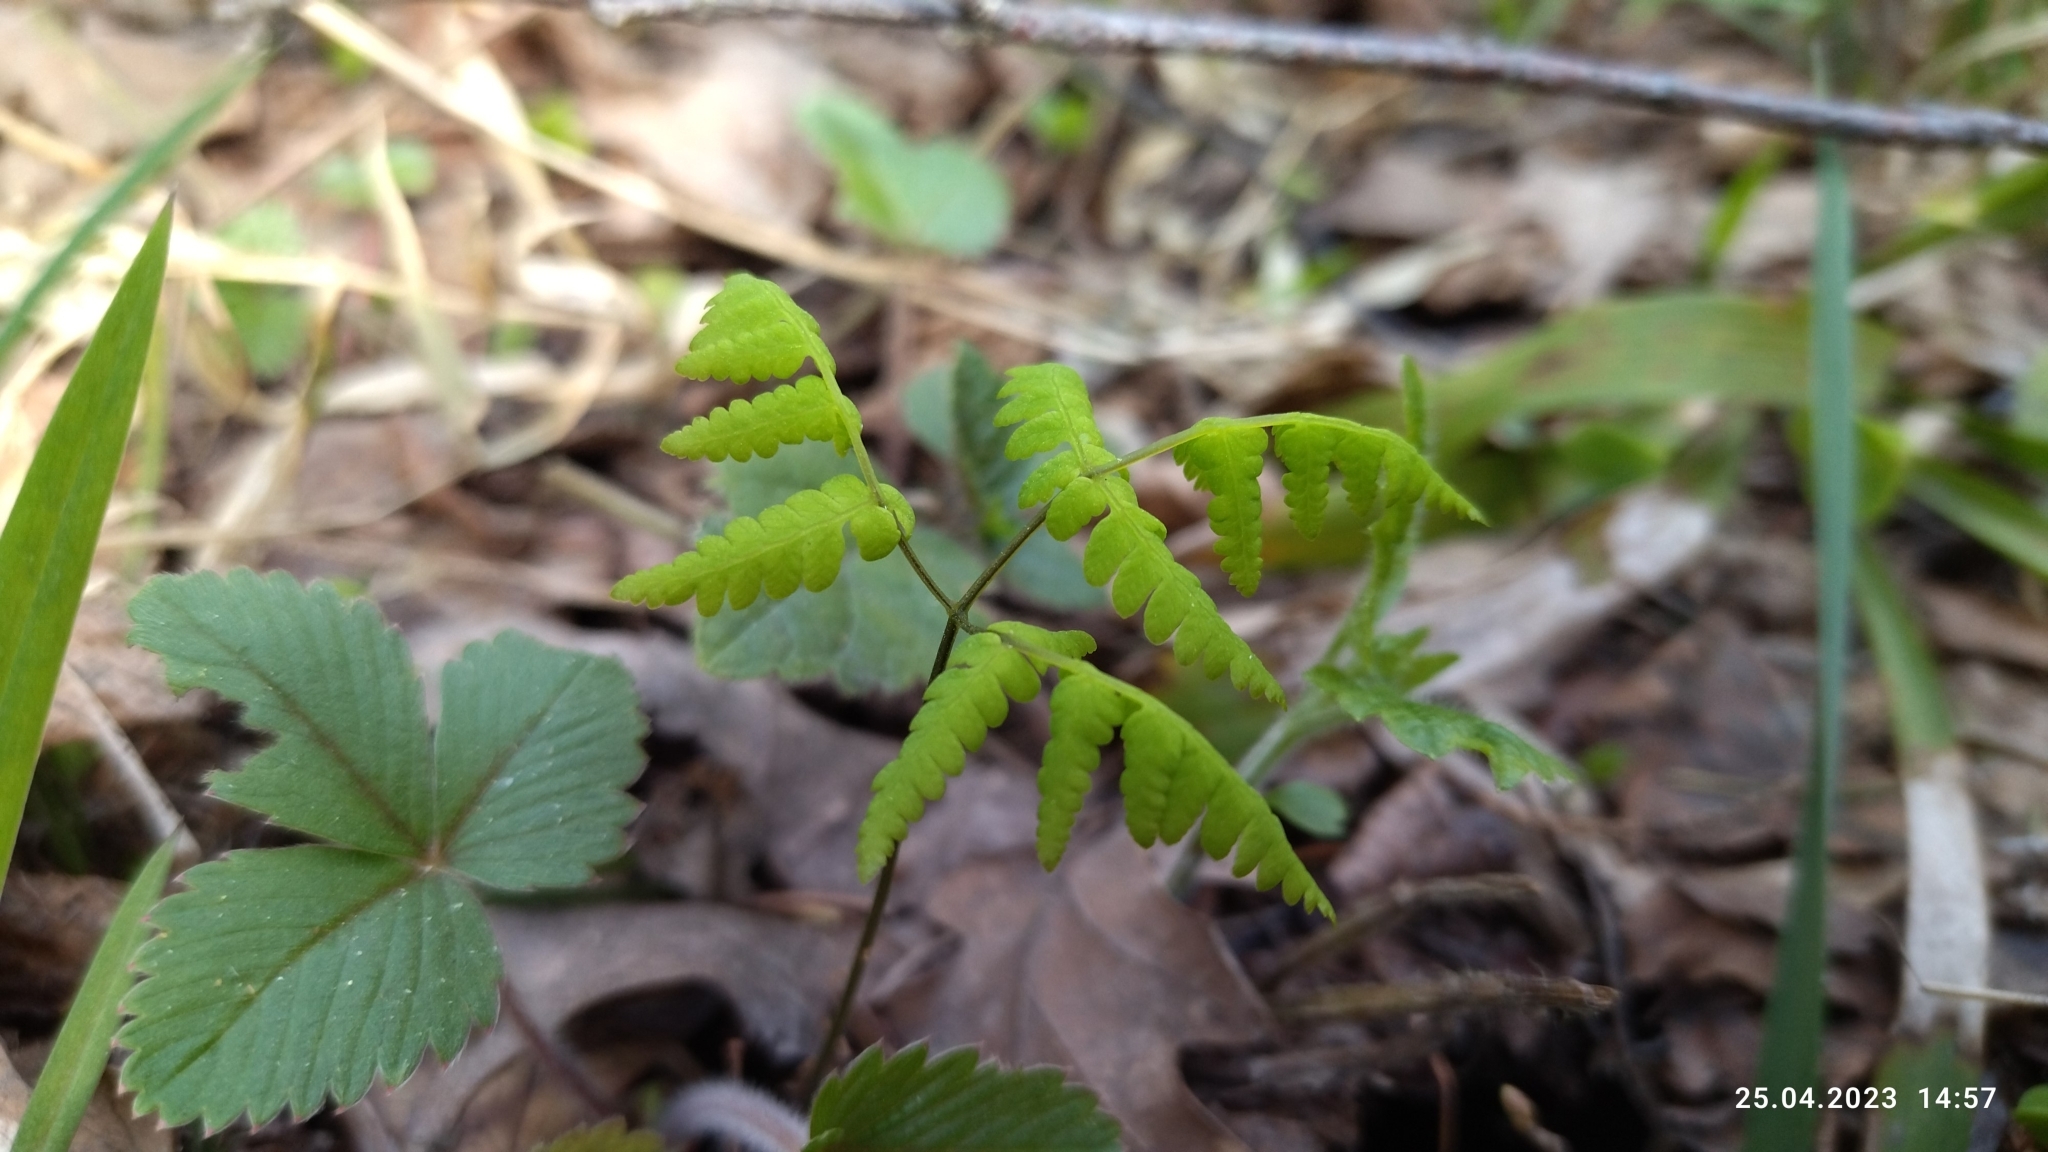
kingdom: Plantae
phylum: Tracheophyta
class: Polypodiopsida
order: Polypodiales
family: Cystopteridaceae
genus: Gymnocarpium
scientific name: Gymnocarpium dryopteris
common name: Oak fern
